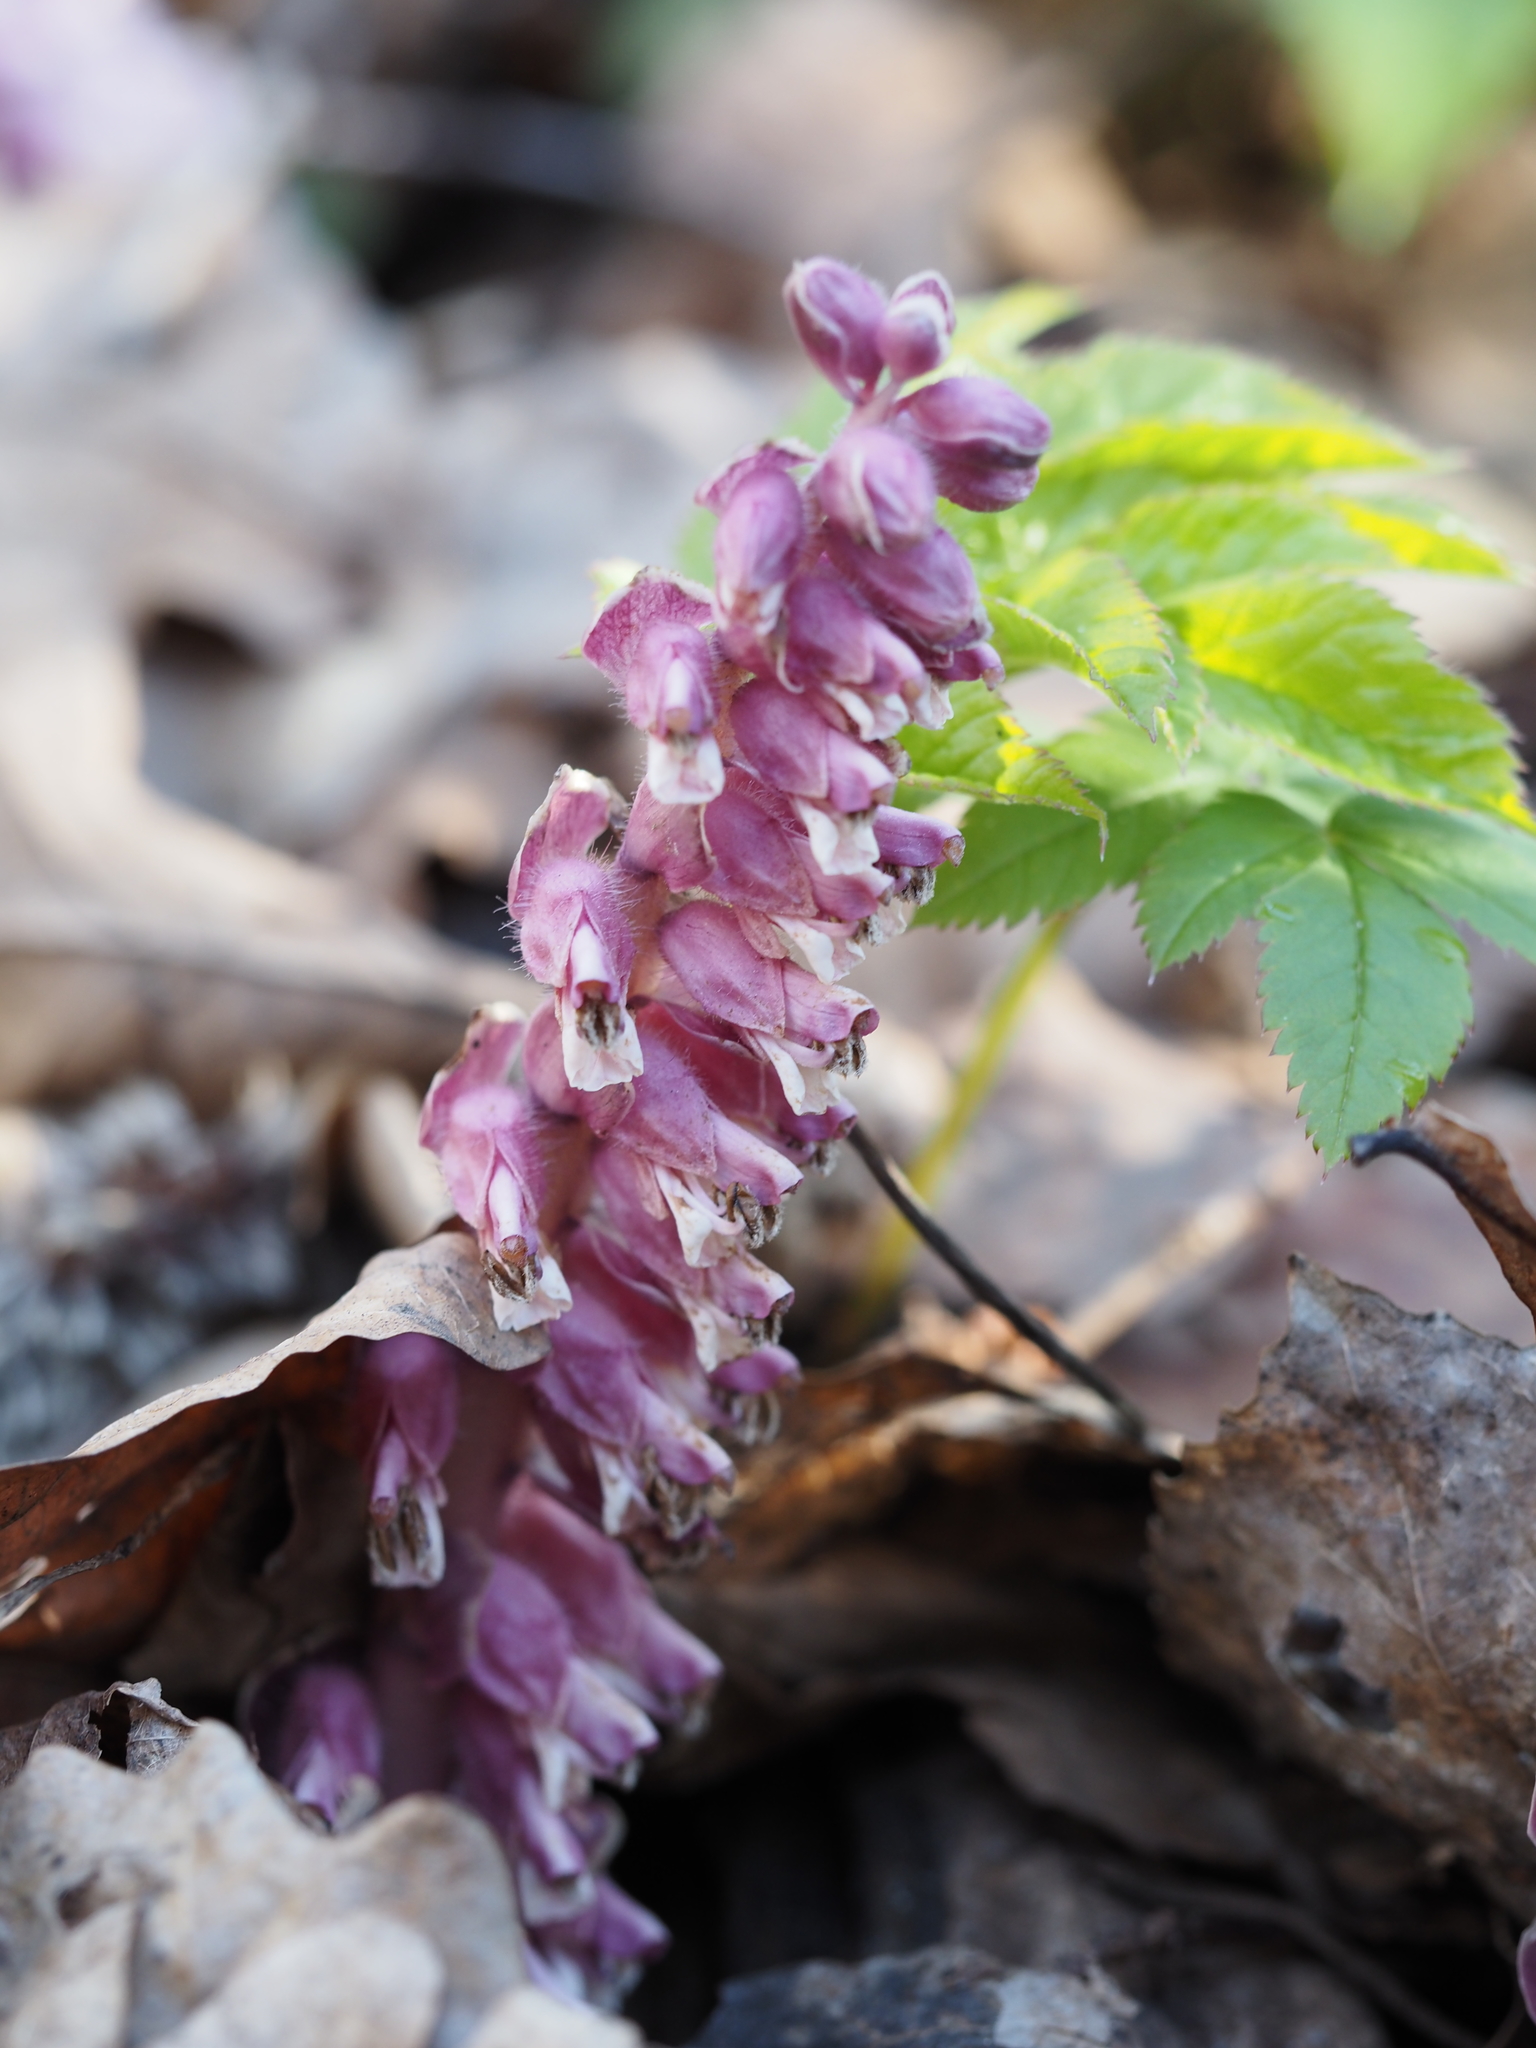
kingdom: Plantae
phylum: Tracheophyta
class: Magnoliopsida
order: Lamiales
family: Orobanchaceae
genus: Lathraea
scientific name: Lathraea squamaria
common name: Toothwort
